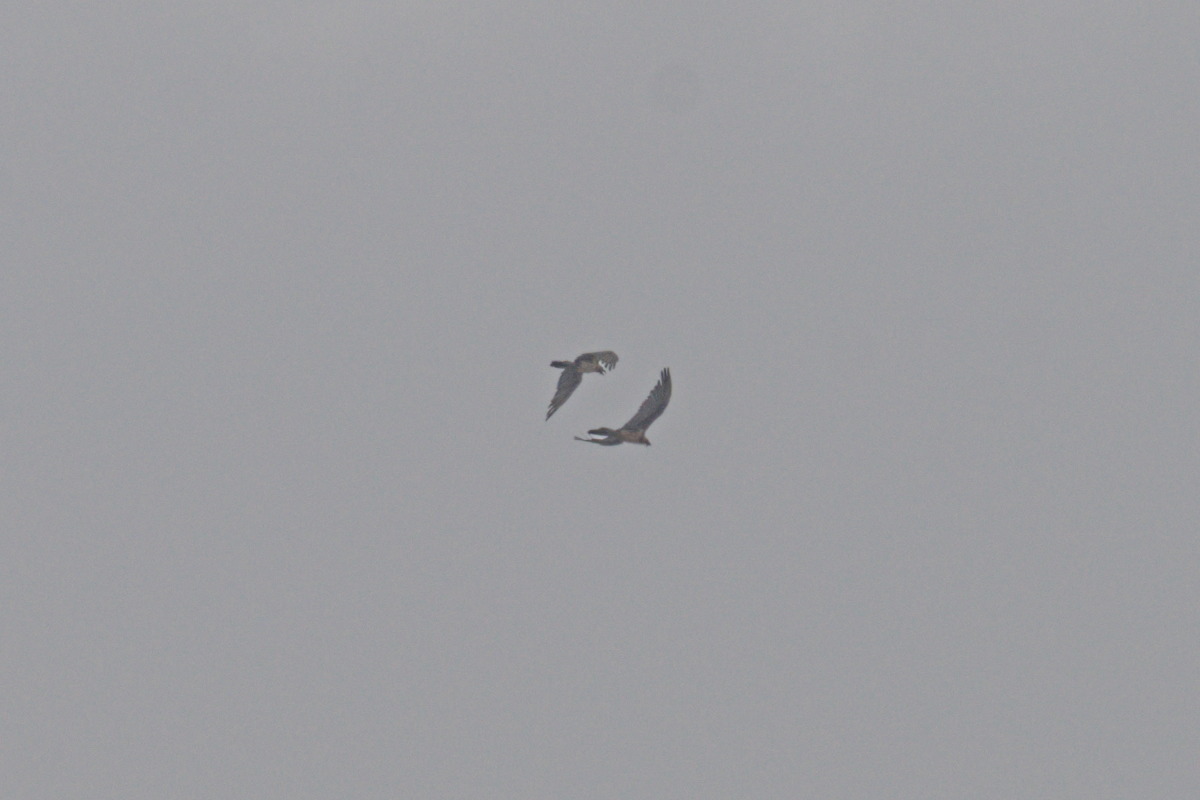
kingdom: Animalia
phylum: Chordata
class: Aves
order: Accipitriformes
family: Accipitridae
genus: Gypaetus
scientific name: Gypaetus barbatus
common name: Bearded vulture
